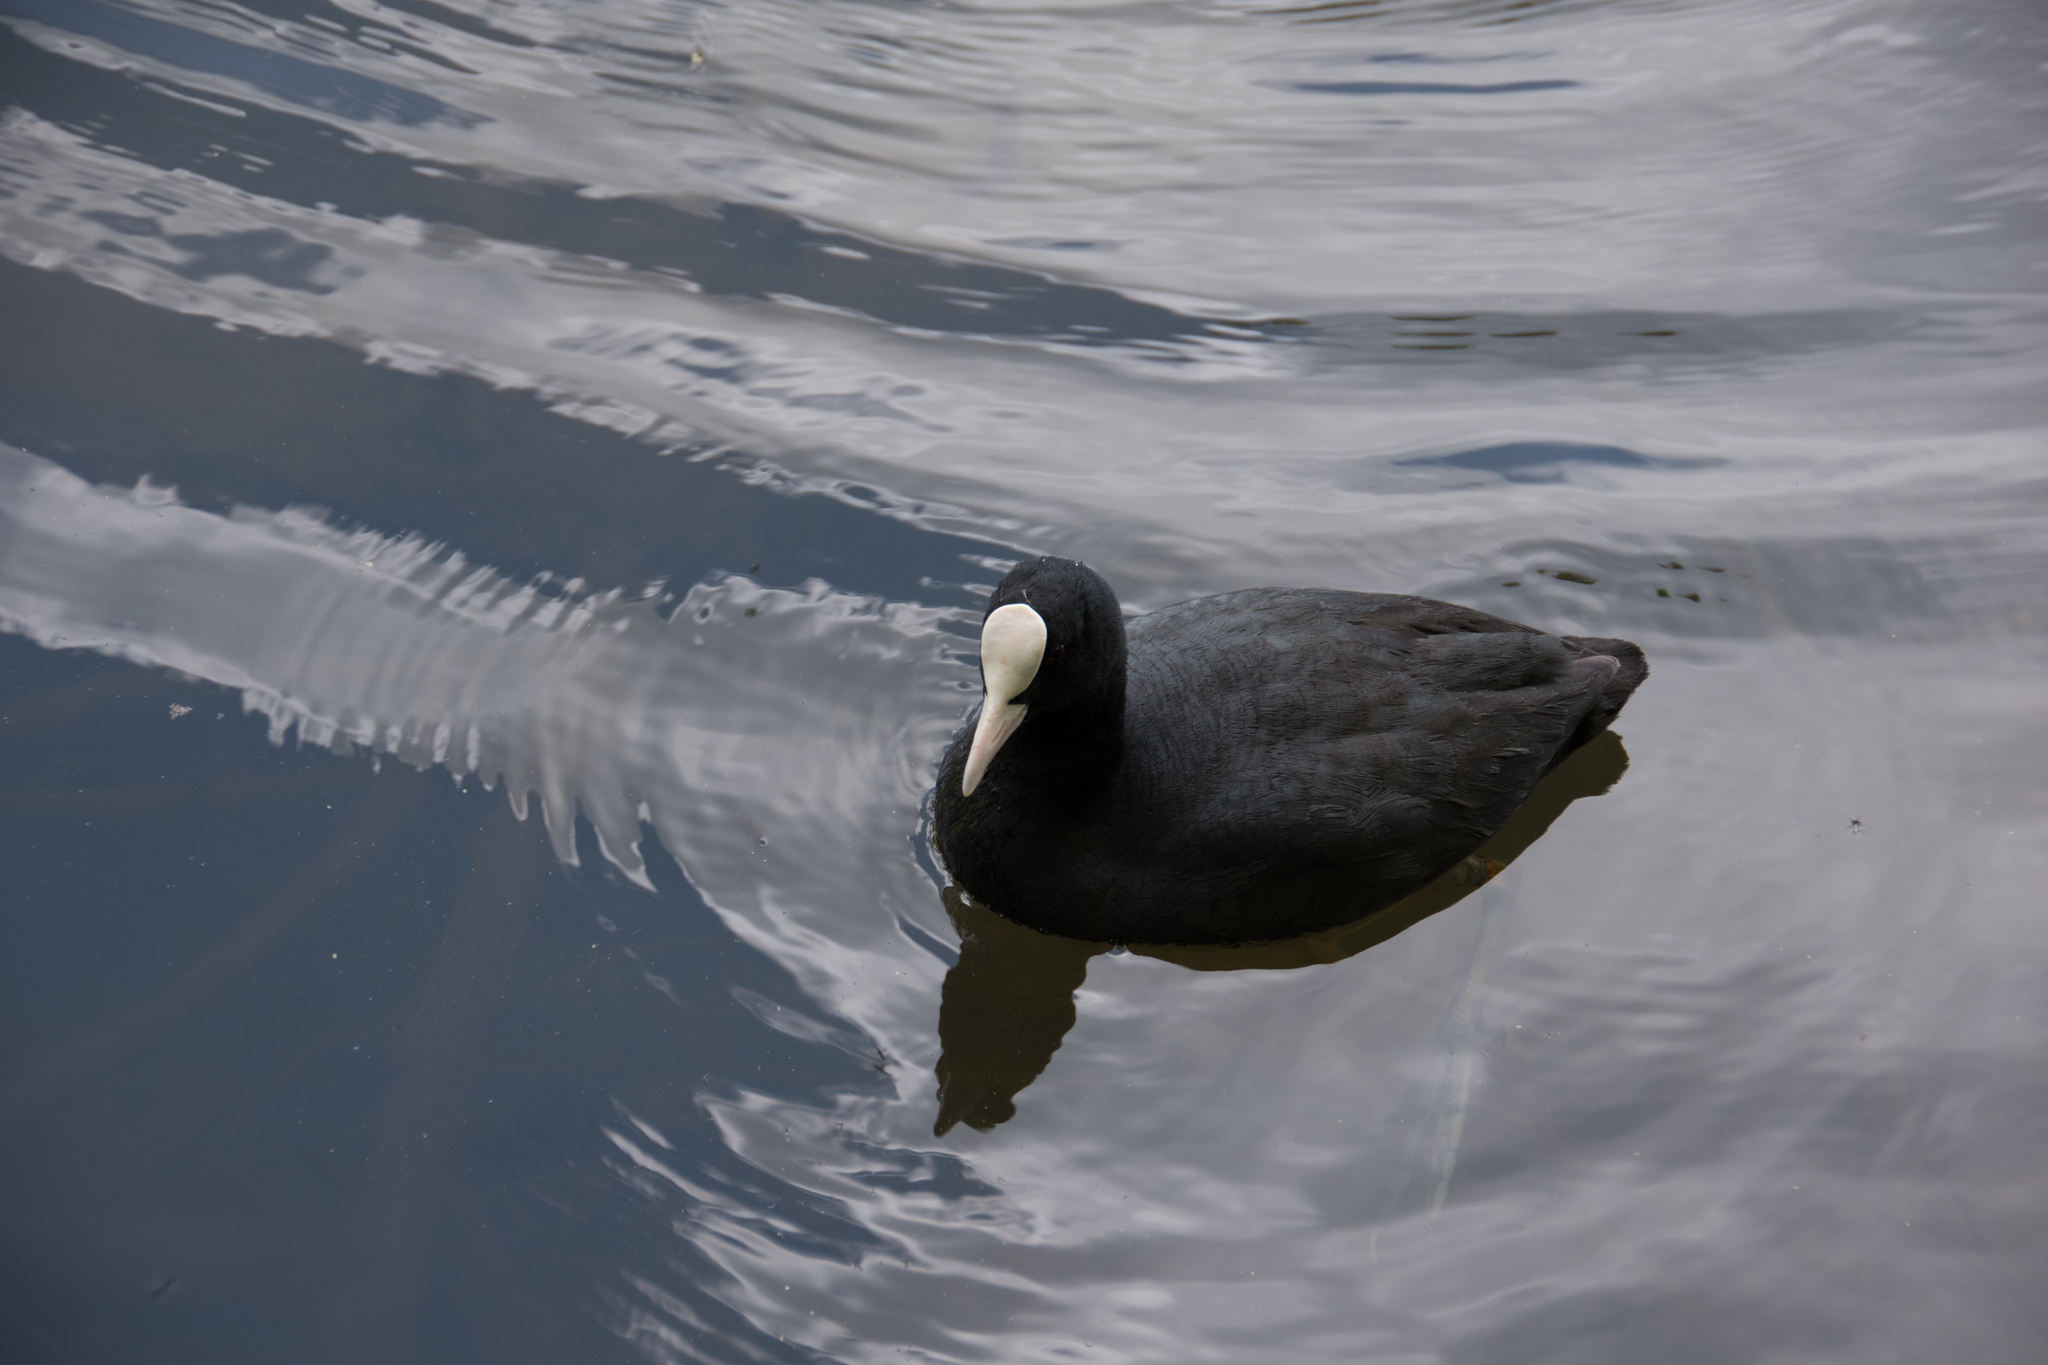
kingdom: Animalia
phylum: Chordata
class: Aves
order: Gruiformes
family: Rallidae
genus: Fulica
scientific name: Fulica atra
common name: Eurasian coot
